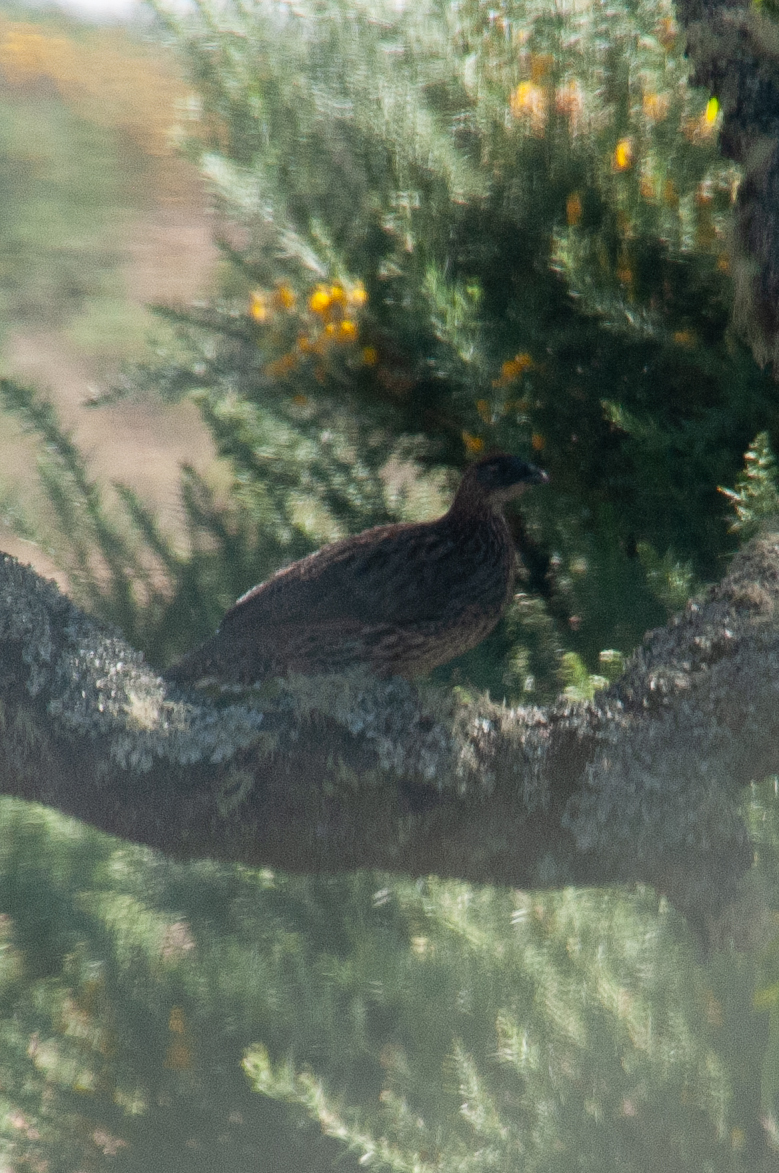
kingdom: Animalia
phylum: Chordata
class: Aves
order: Galliformes
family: Phasianidae
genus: Pternistis
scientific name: Pternistis erckelii
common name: Erckel's francolin
